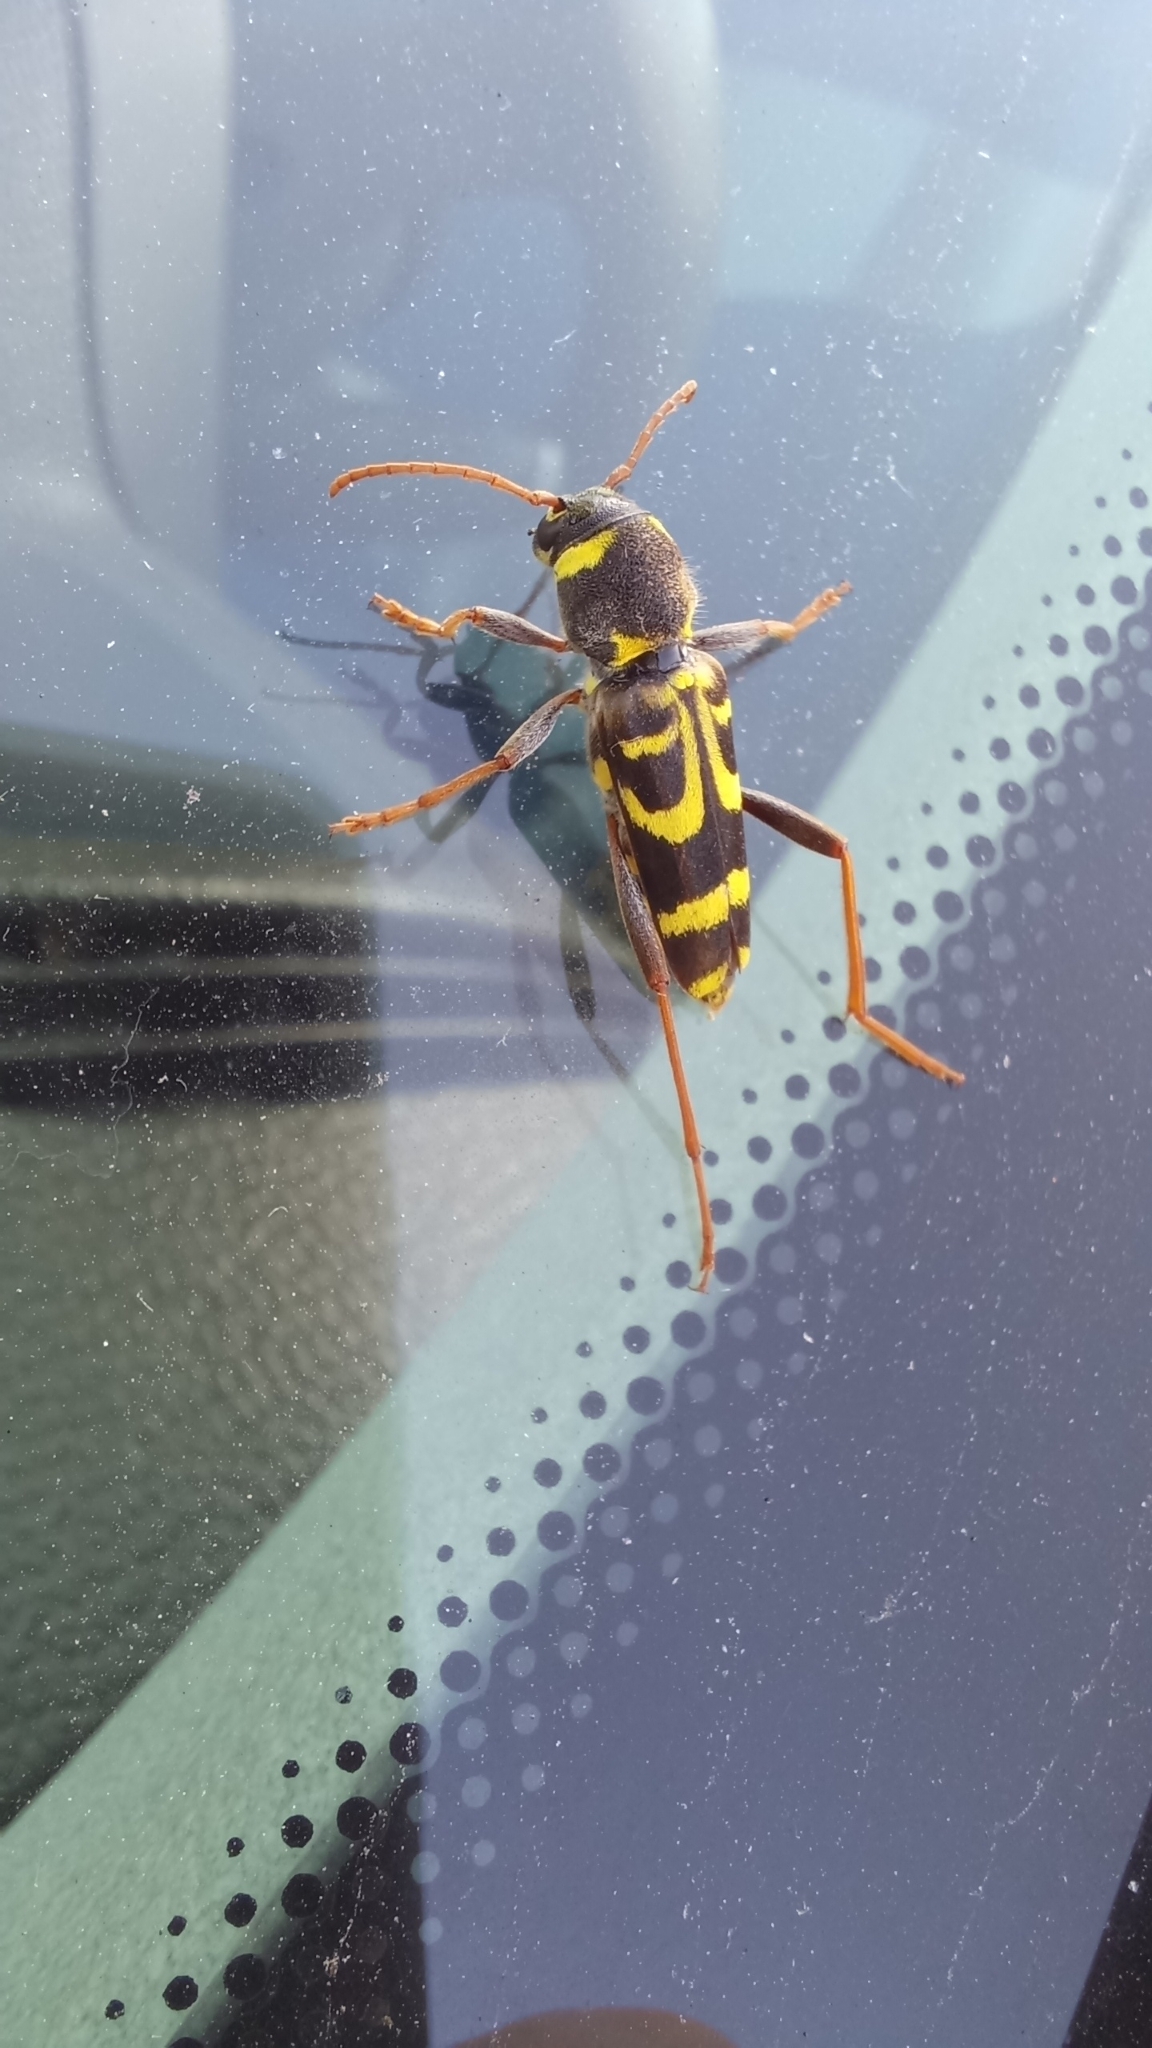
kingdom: Animalia
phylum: Arthropoda
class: Insecta
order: Coleoptera
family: Cerambycidae
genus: Xylotrechus
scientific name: Xylotrechus arvicola
